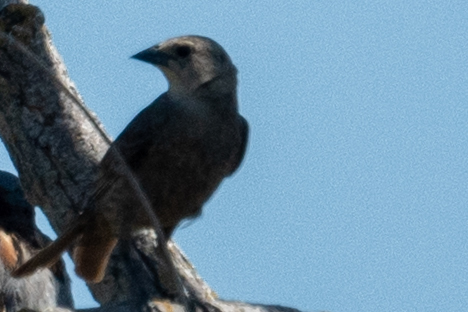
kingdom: Animalia
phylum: Chordata
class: Aves
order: Passeriformes
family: Icteridae
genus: Molothrus
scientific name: Molothrus ater
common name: Brown-headed cowbird
